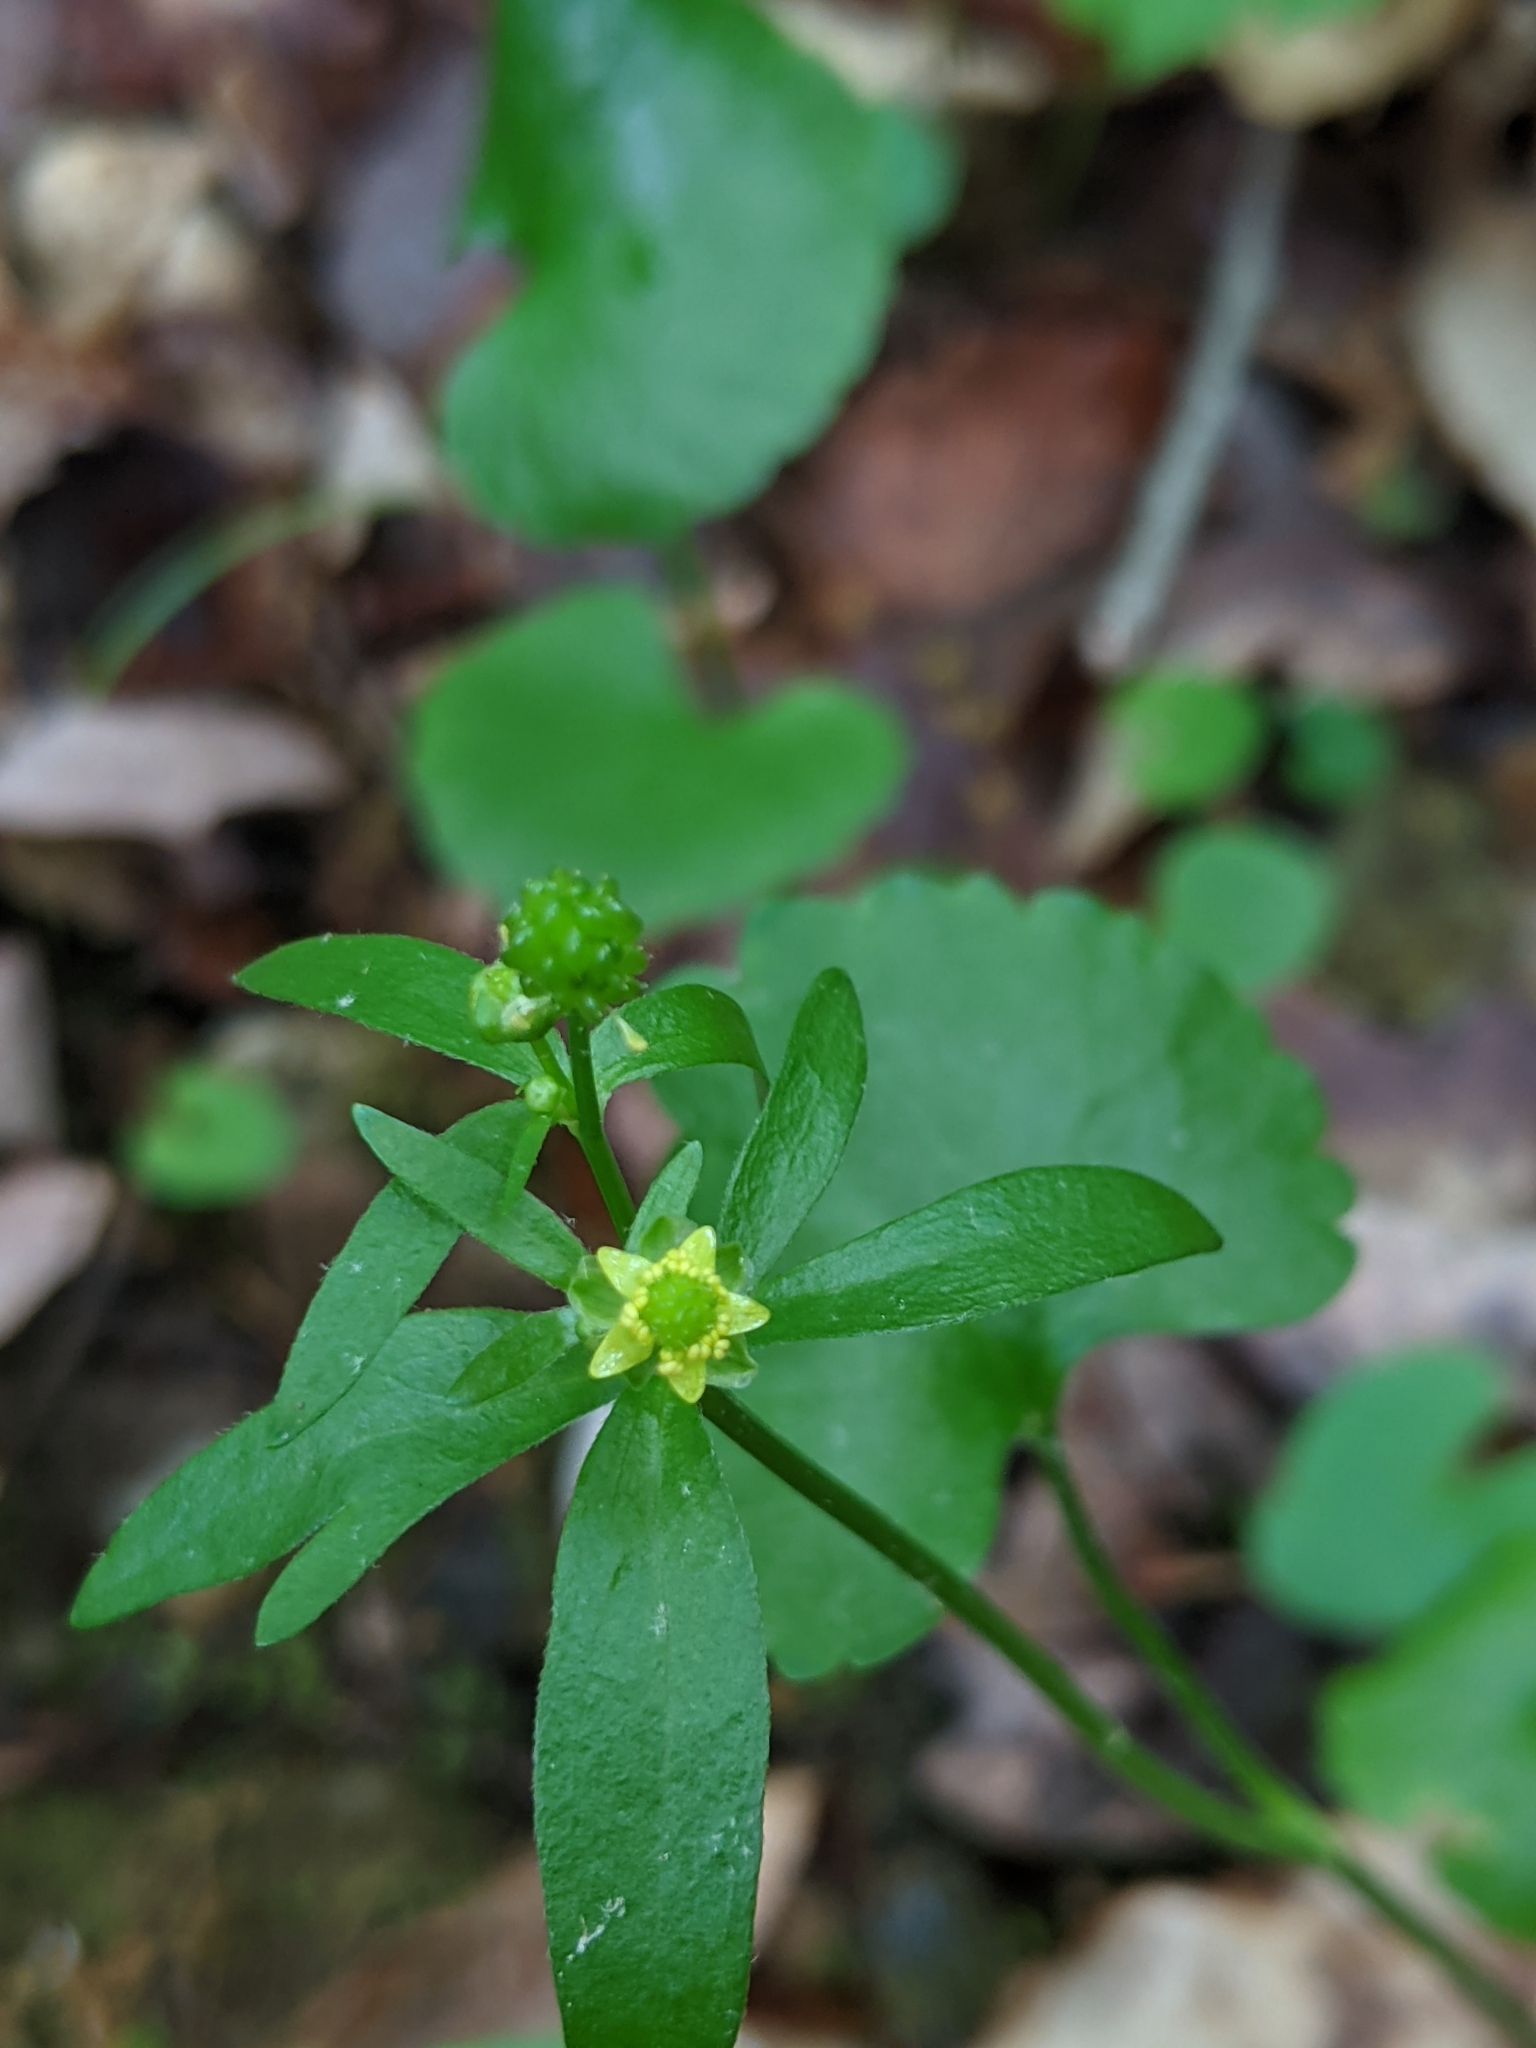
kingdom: Plantae
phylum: Tracheophyta
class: Magnoliopsida
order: Ranunculales
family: Ranunculaceae
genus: Ranunculus
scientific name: Ranunculus abortivus
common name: Early wood buttercup
